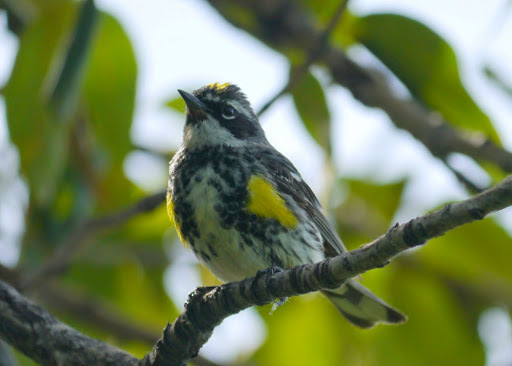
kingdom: Animalia
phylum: Chordata
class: Aves
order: Passeriformes
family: Parulidae
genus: Setophaga
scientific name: Setophaga coronata
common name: Myrtle warbler
